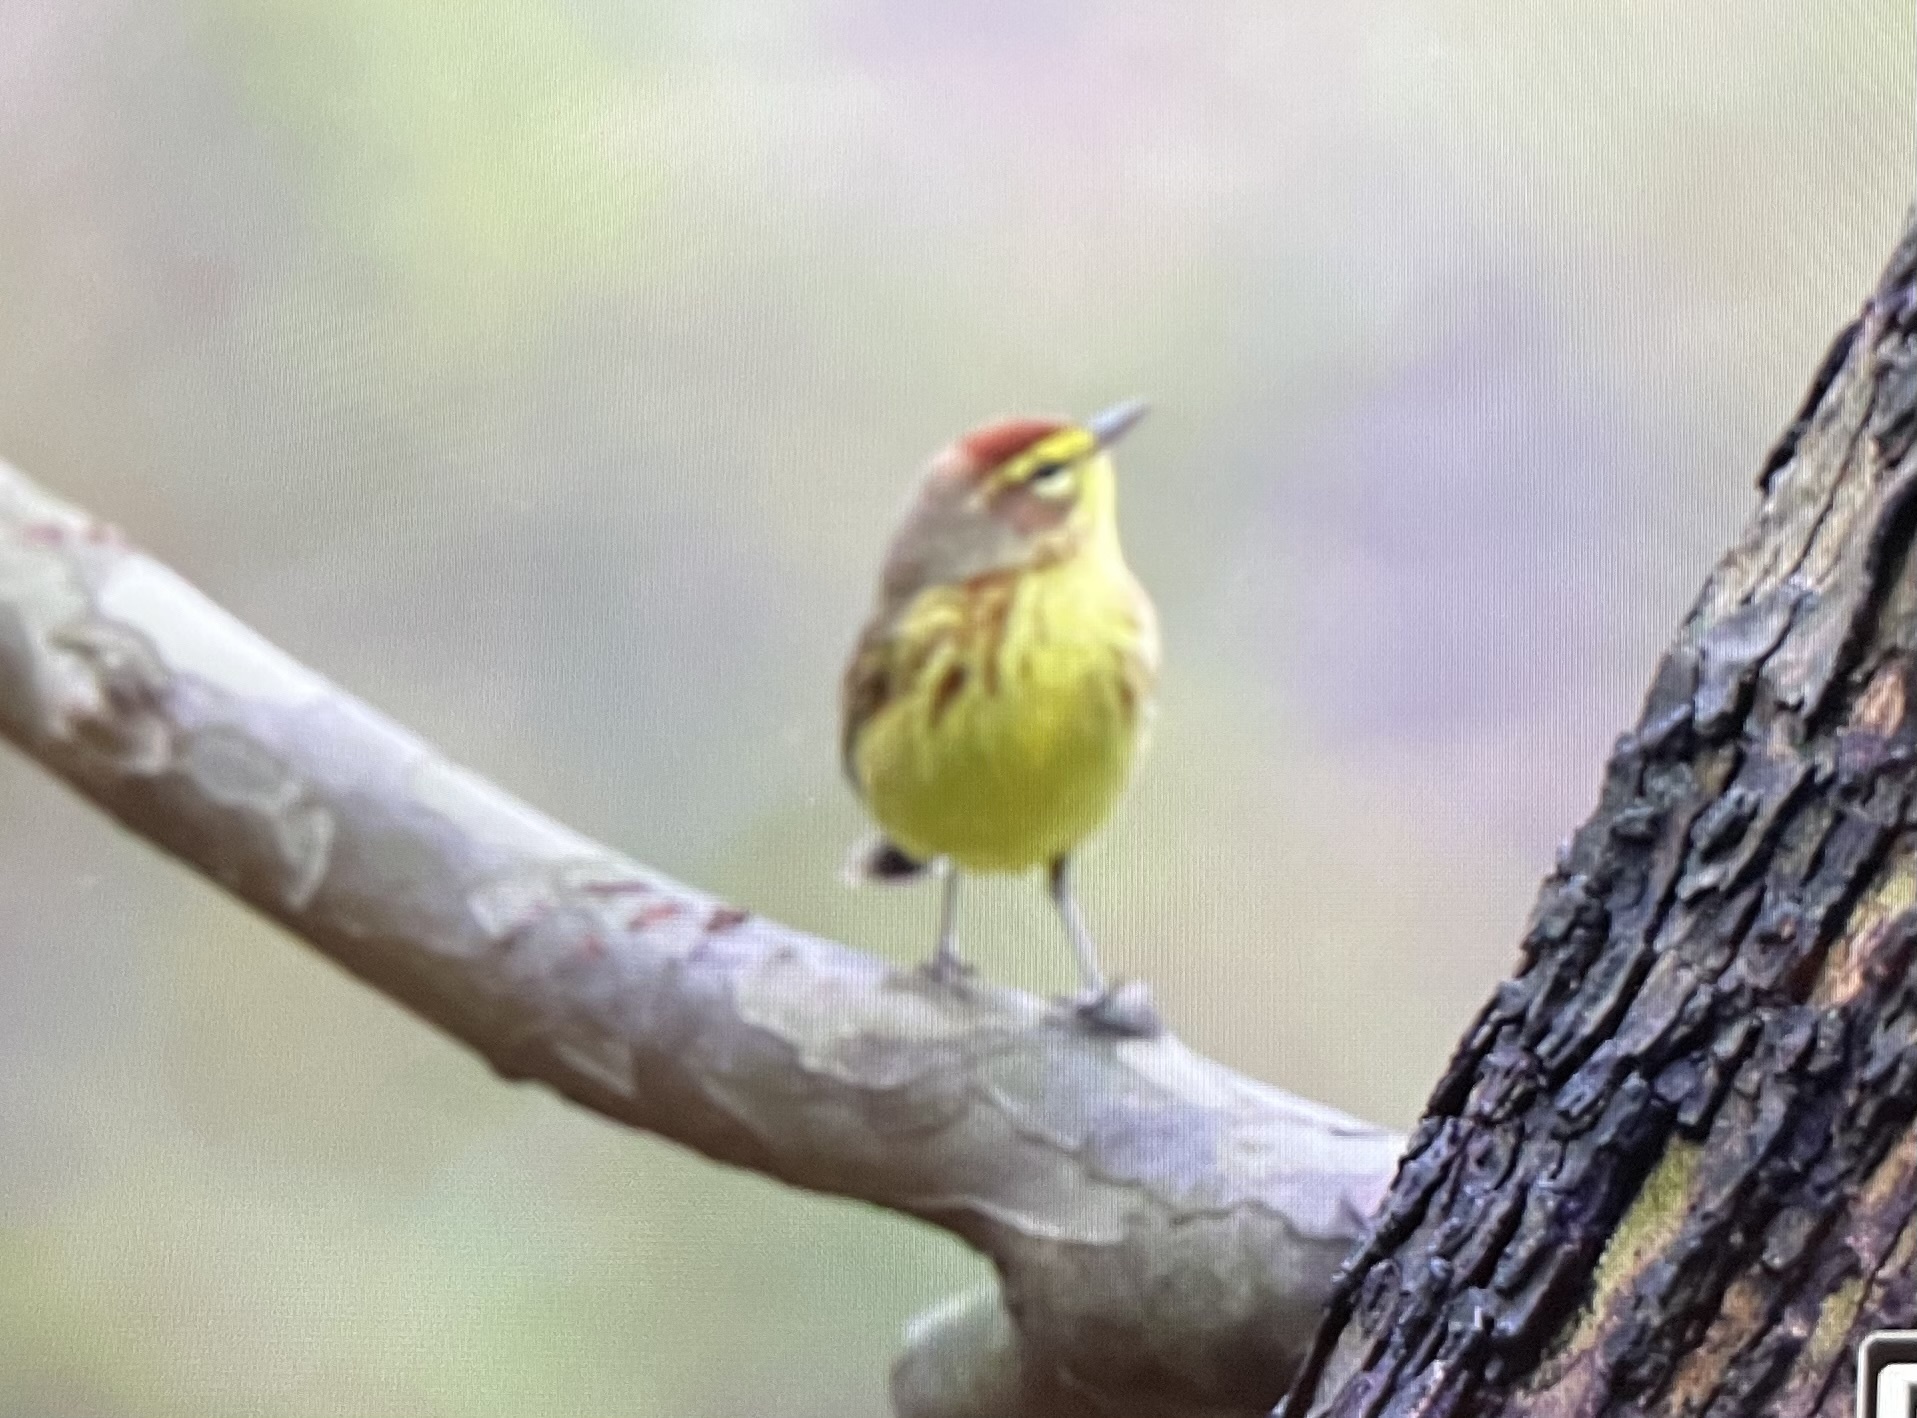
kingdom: Animalia
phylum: Chordata
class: Aves
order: Passeriformes
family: Parulidae
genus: Setophaga
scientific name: Setophaga palmarum
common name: Palm warbler
